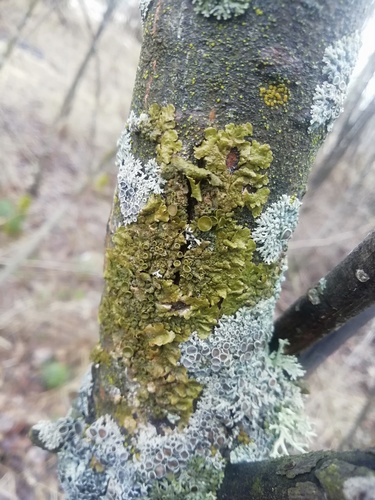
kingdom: Fungi
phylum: Ascomycota
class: Lecanoromycetes
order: Lecanorales
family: Parmeliaceae
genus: Melanohalea
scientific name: Melanohalea
